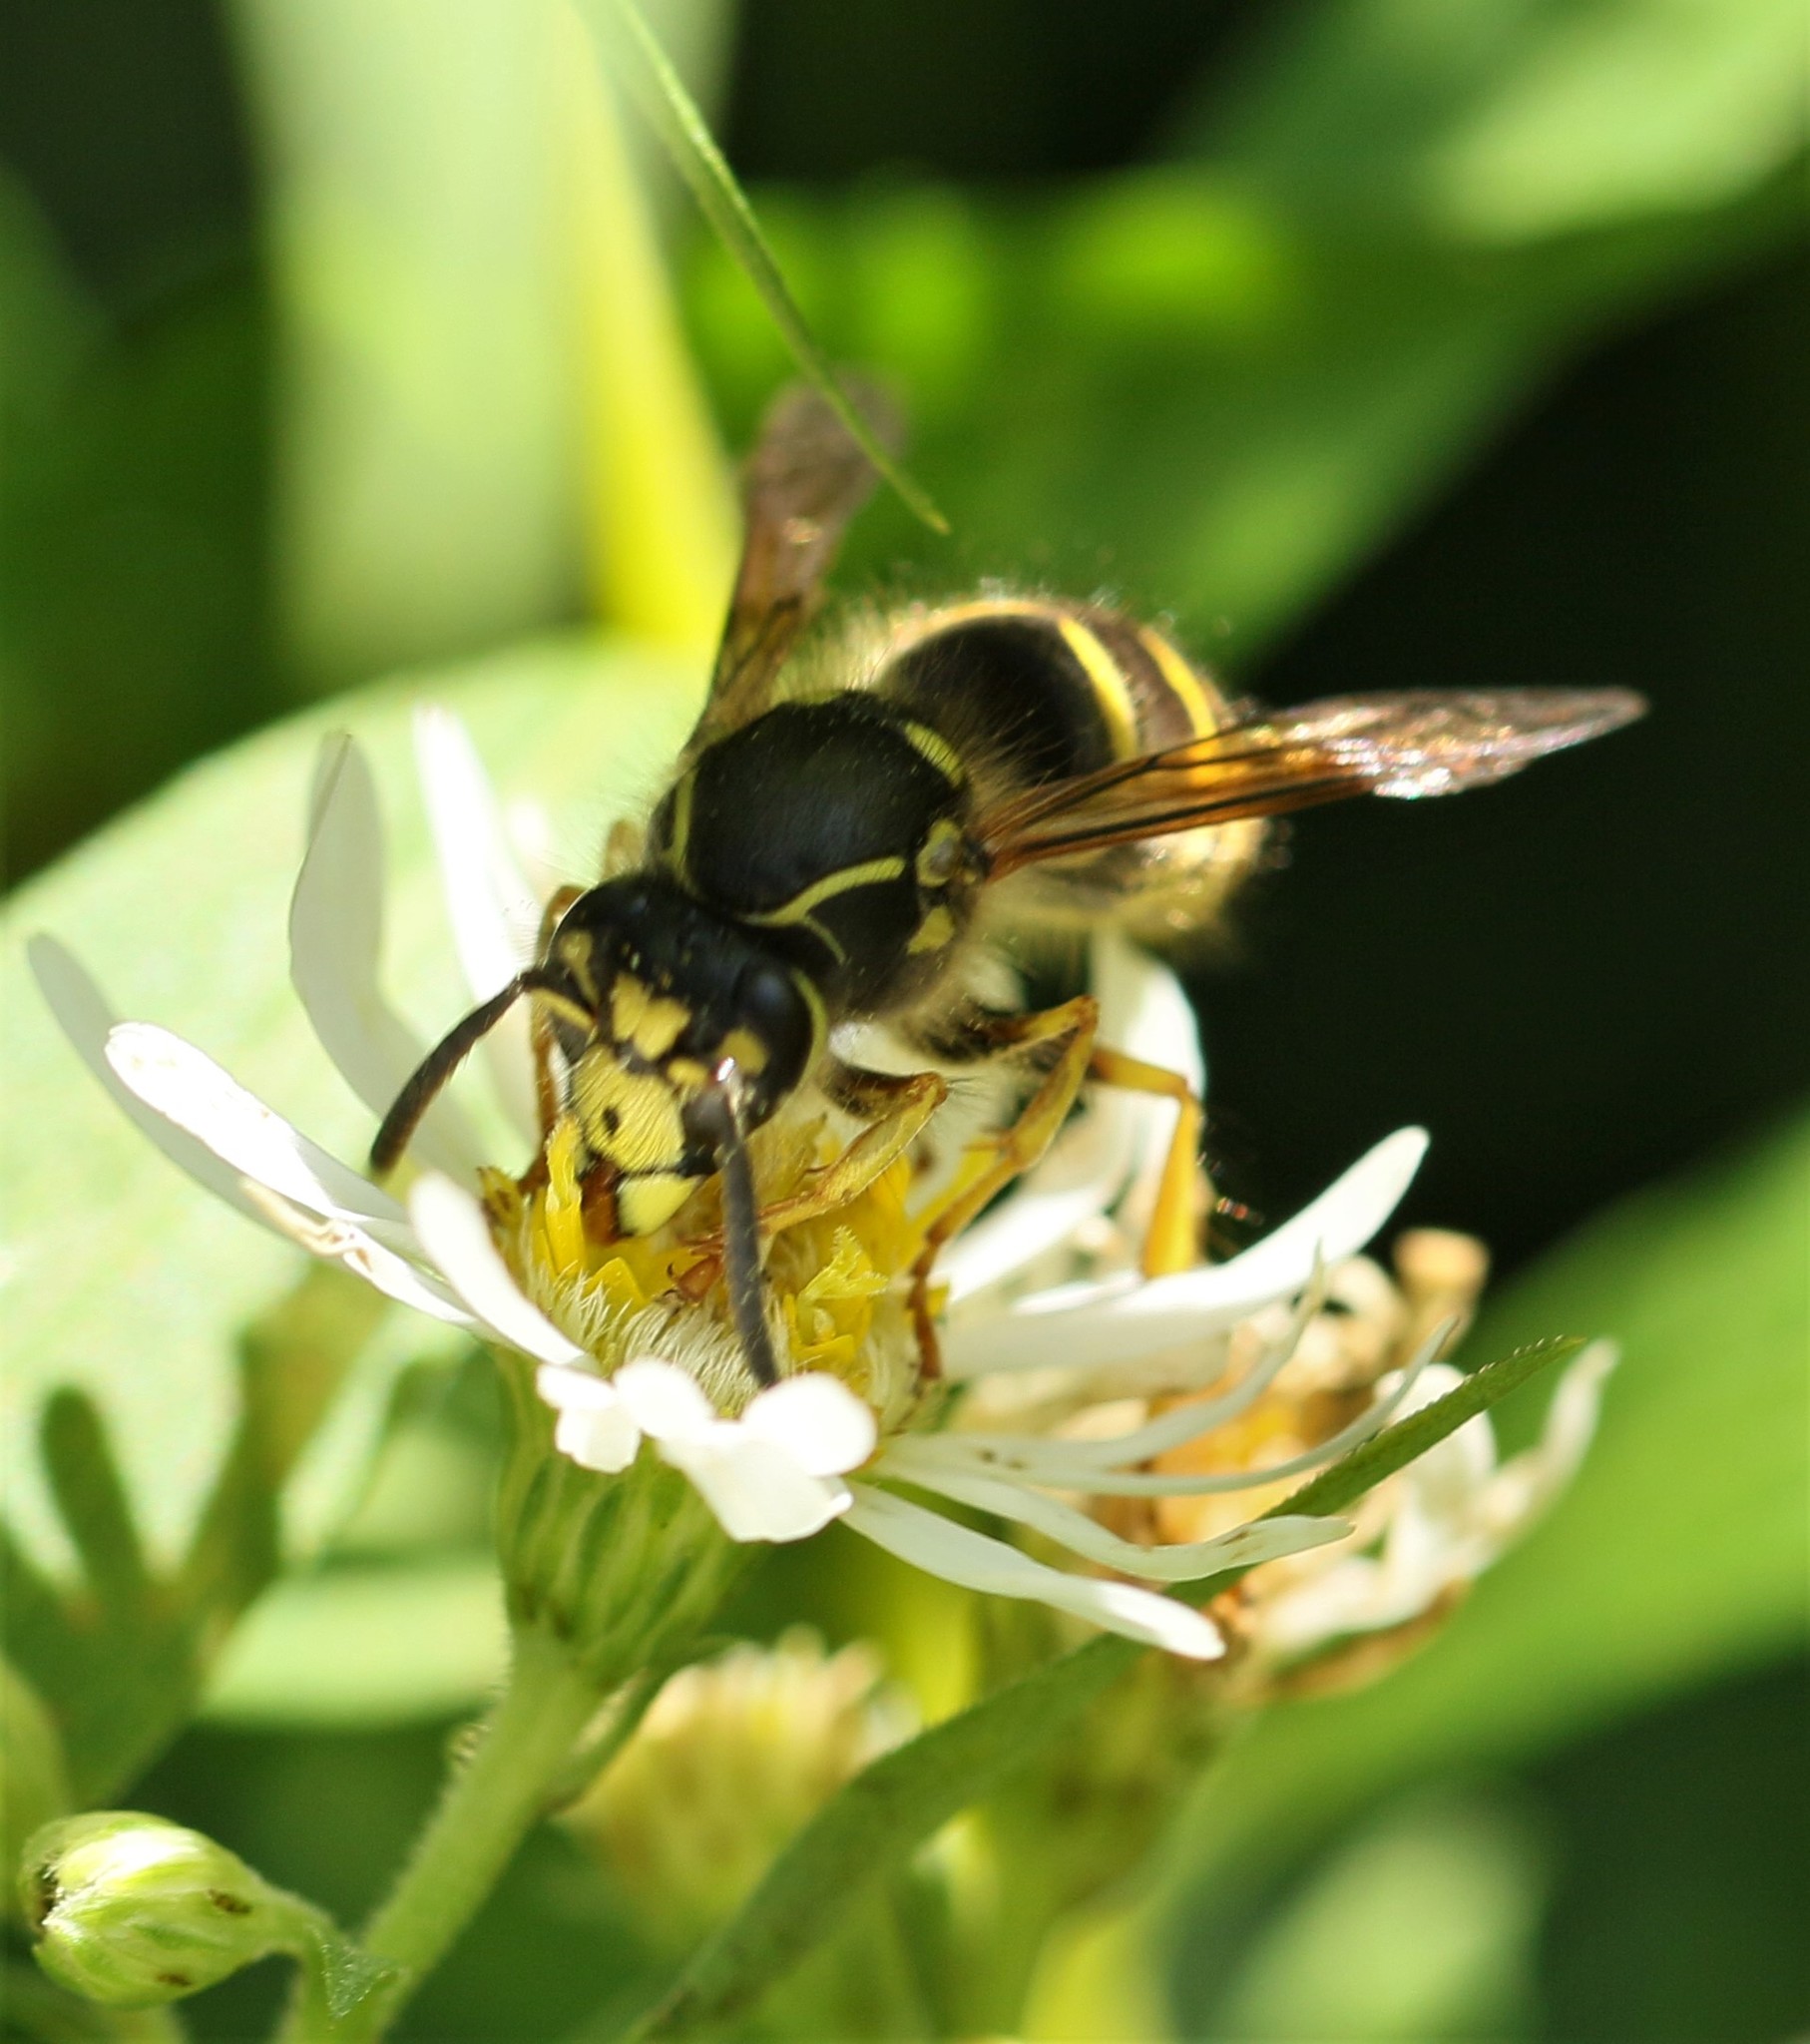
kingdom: Animalia
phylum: Arthropoda
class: Insecta
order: Hymenoptera
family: Vespidae
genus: Dolichovespula
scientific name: Dolichovespula arenaria
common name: Aerial yellowjacket
